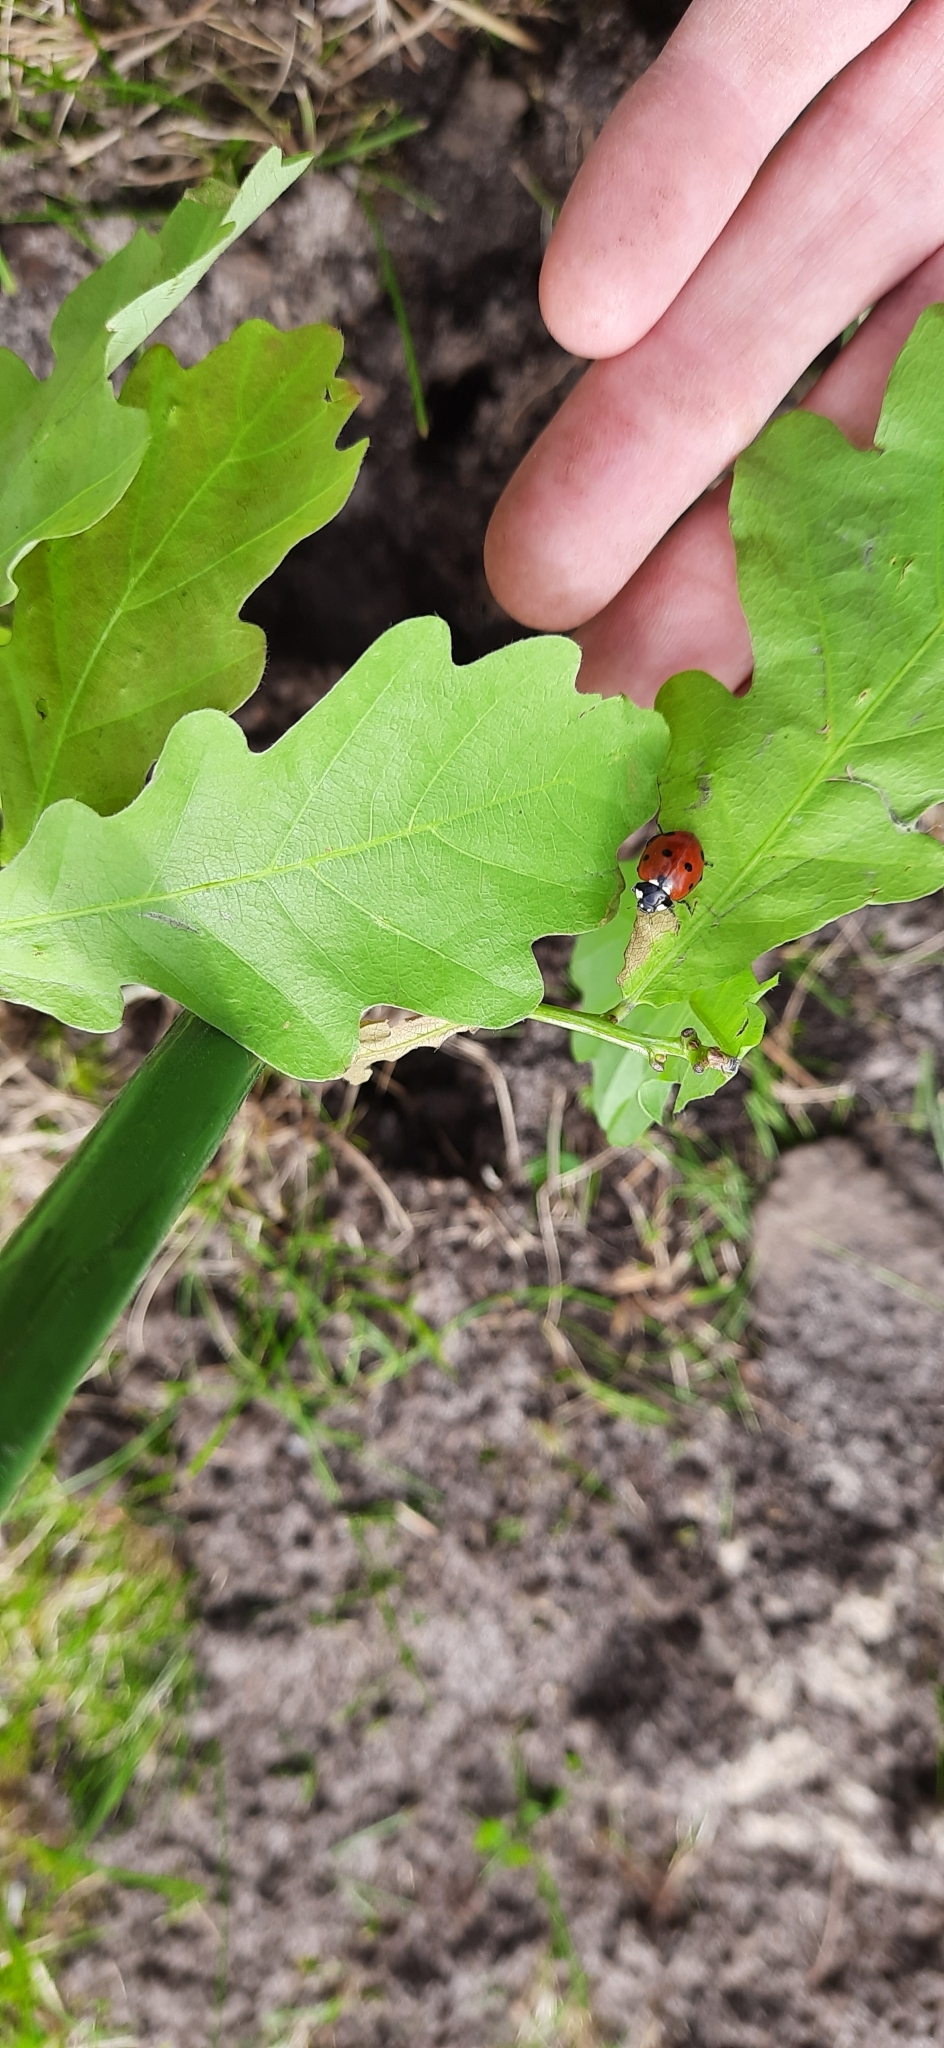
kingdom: Animalia
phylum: Arthropoda
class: Insecta
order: Coleoptera
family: Coccinellidae
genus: Coccinella
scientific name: Coccinella septempunctata
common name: Sevenspotted lady beetle
